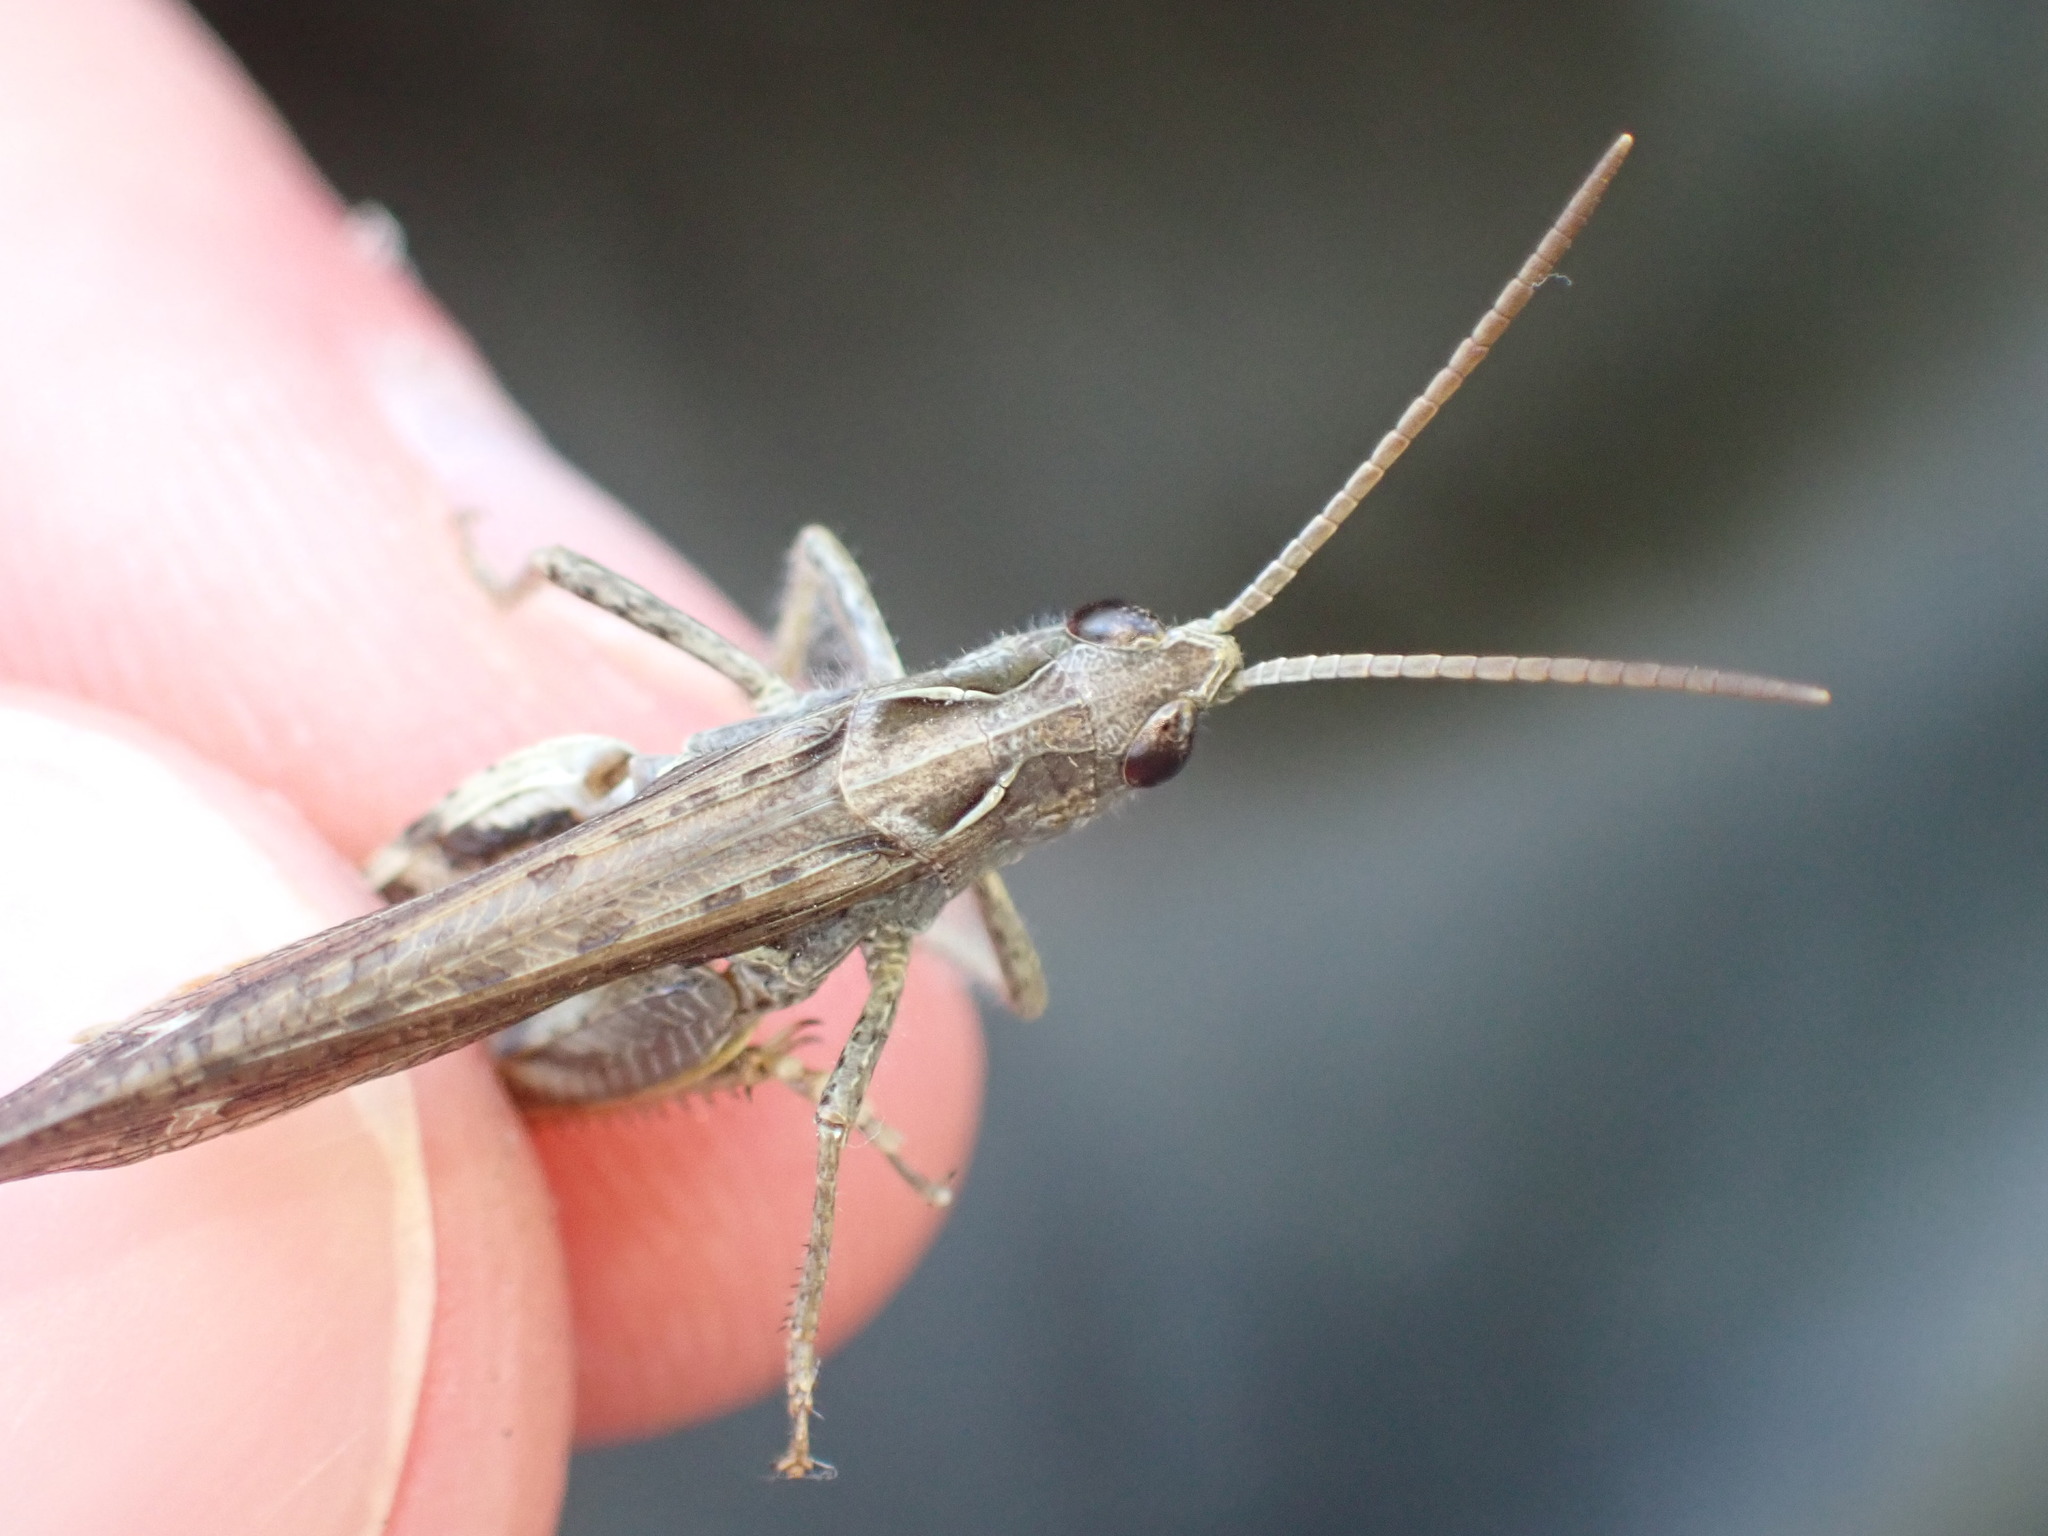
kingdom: Animalia
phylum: Arthropoda
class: Insecta
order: Orthoptera
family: Acrididae
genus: Chorthippus
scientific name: Chorthippus biguttulus
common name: Bow-winged grasshopper
